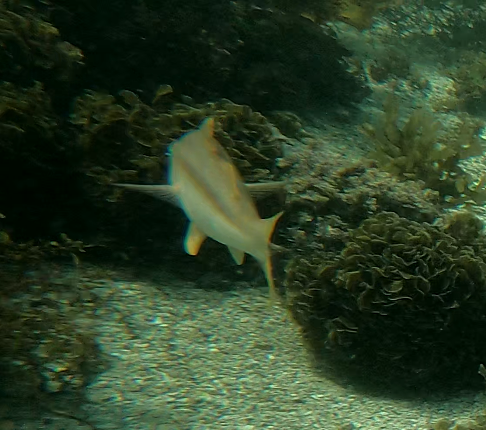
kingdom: Animalia
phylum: Chordata
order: Perciformes
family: Mullidae
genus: Upeneichthys
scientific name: Upeneichthys lineatus
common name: Red mullet
